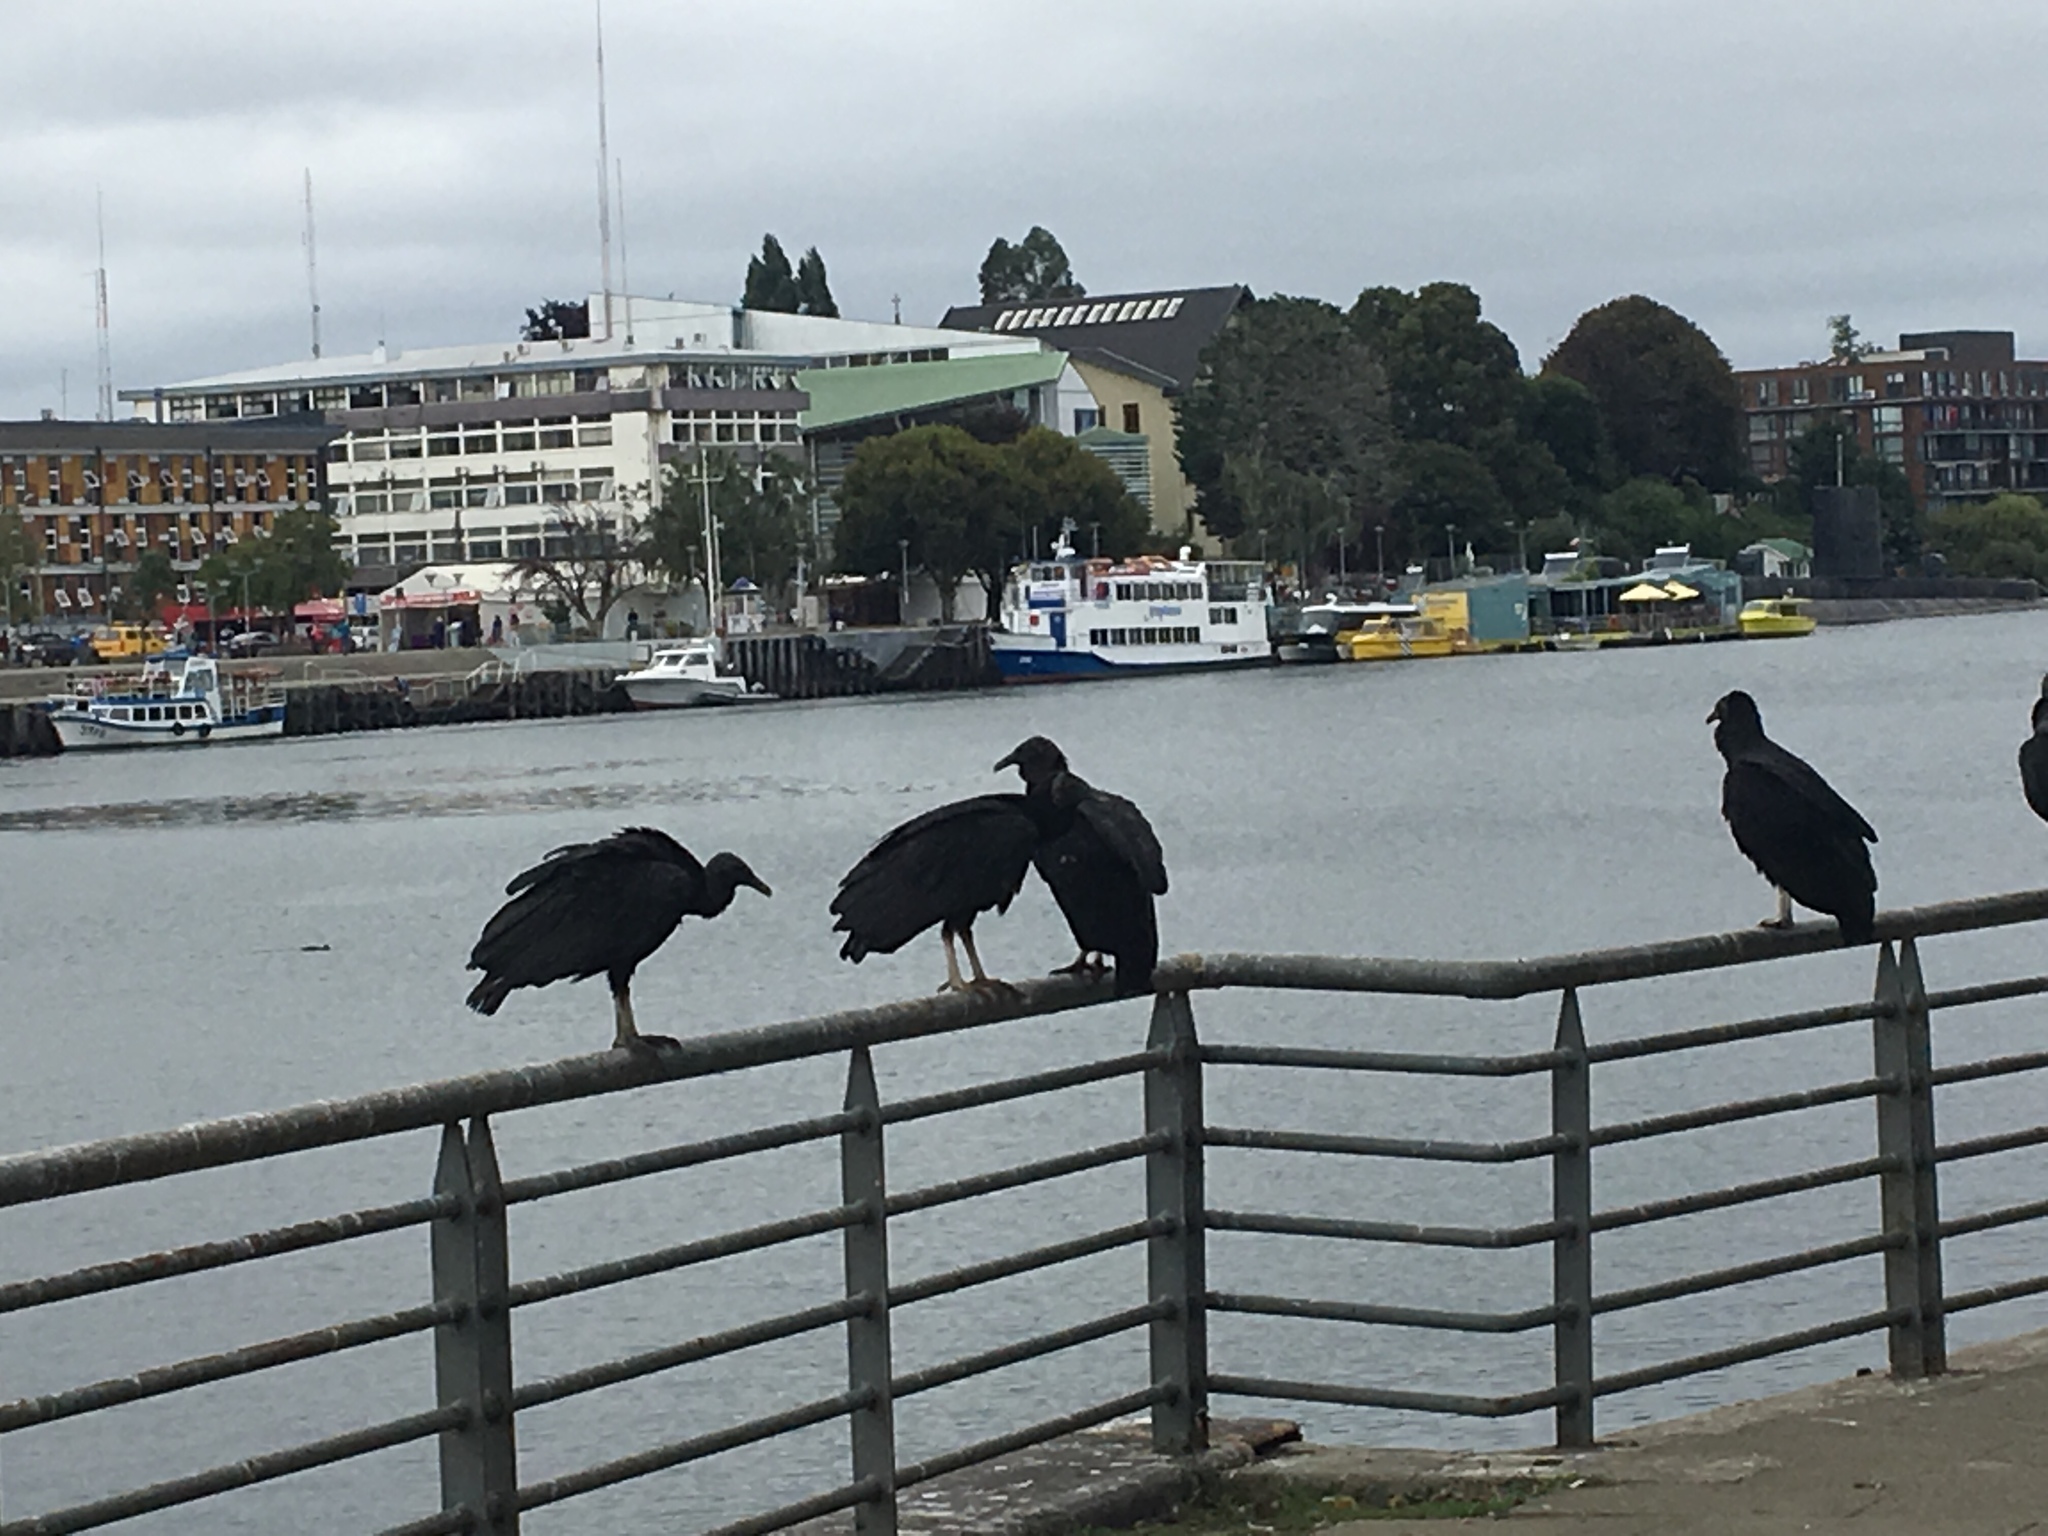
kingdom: Animalia
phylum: Chordata
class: Aves
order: Accipitriformes
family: Cathartidae
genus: Coragyps
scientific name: Coragyps atratus
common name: Black vulture
